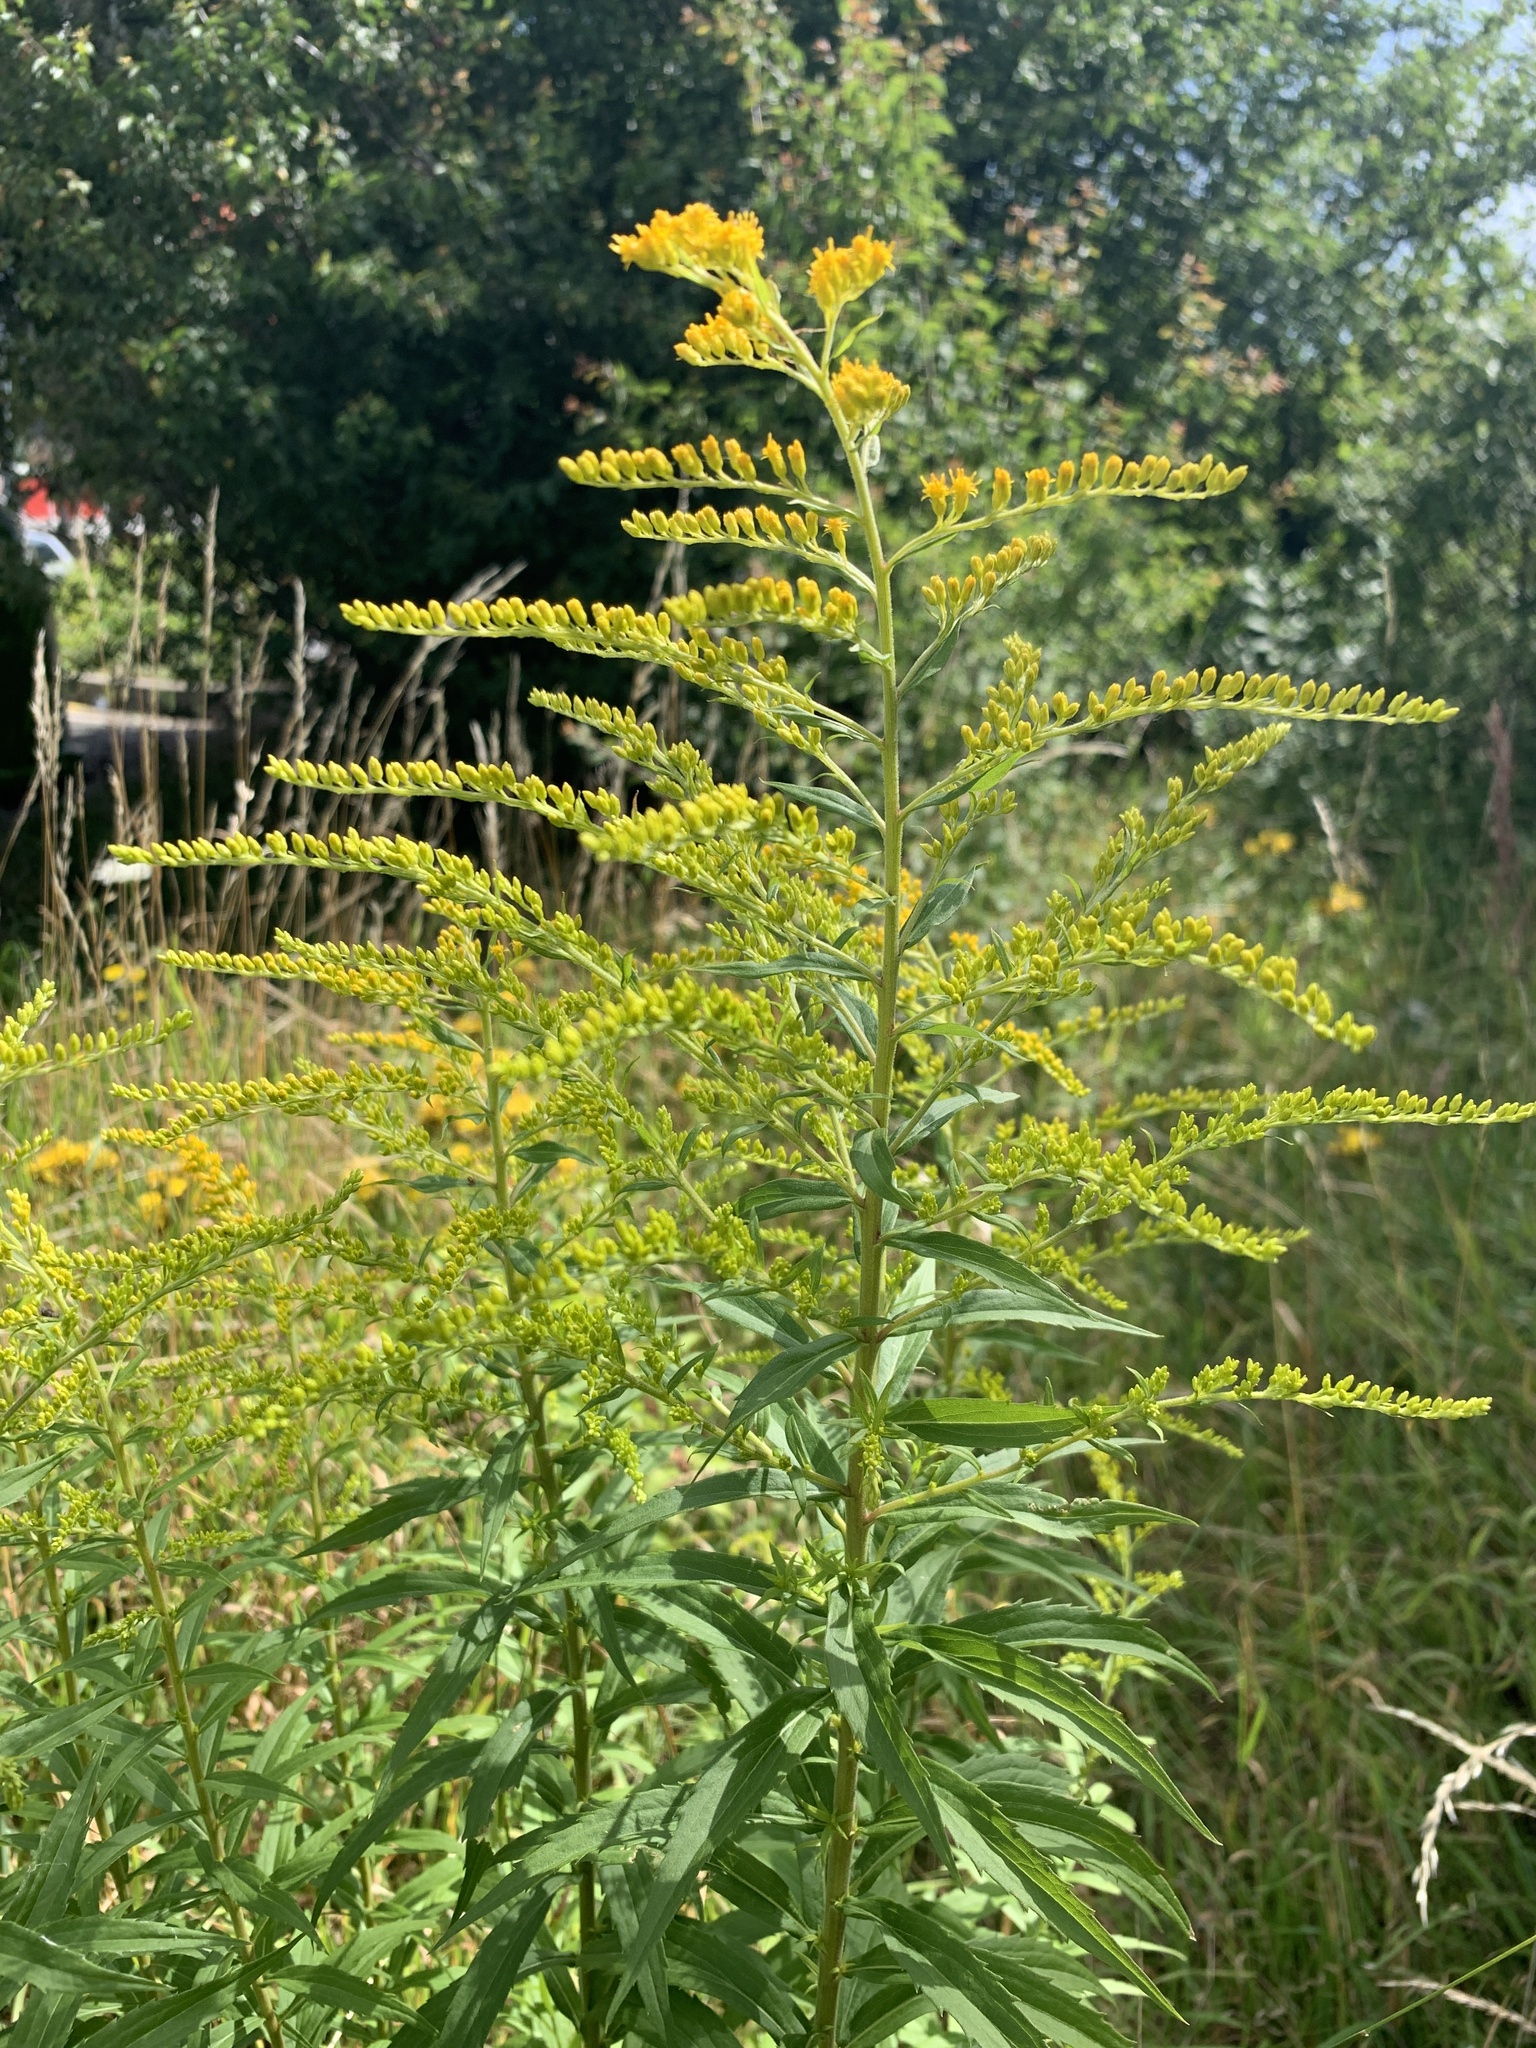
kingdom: Plantae
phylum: Tracheophyta
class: Magnoliopsida
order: Asterales
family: Asteraceae
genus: Solidago
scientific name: Solidago canadensis
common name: Canada goldenrod
